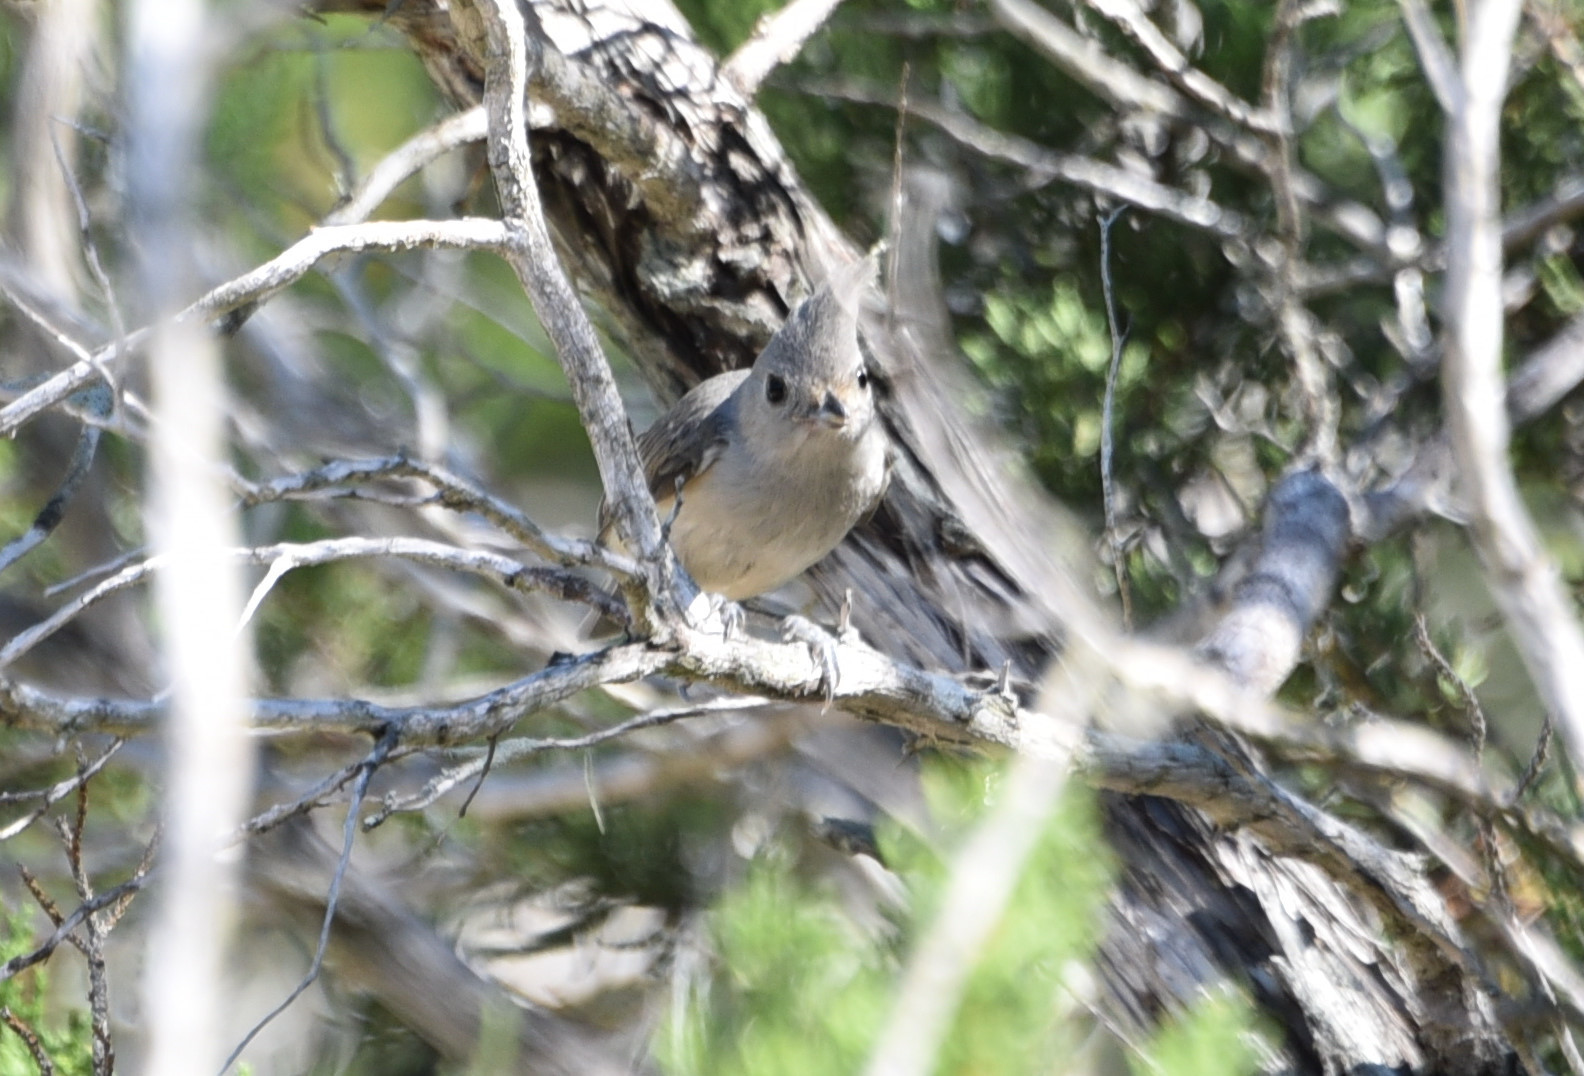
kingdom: Animalia
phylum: Chordata
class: Aves
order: Passeriformes
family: Paridae
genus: Baeolophus
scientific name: Baeolophus atricristatus
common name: Black-crested titmouse
